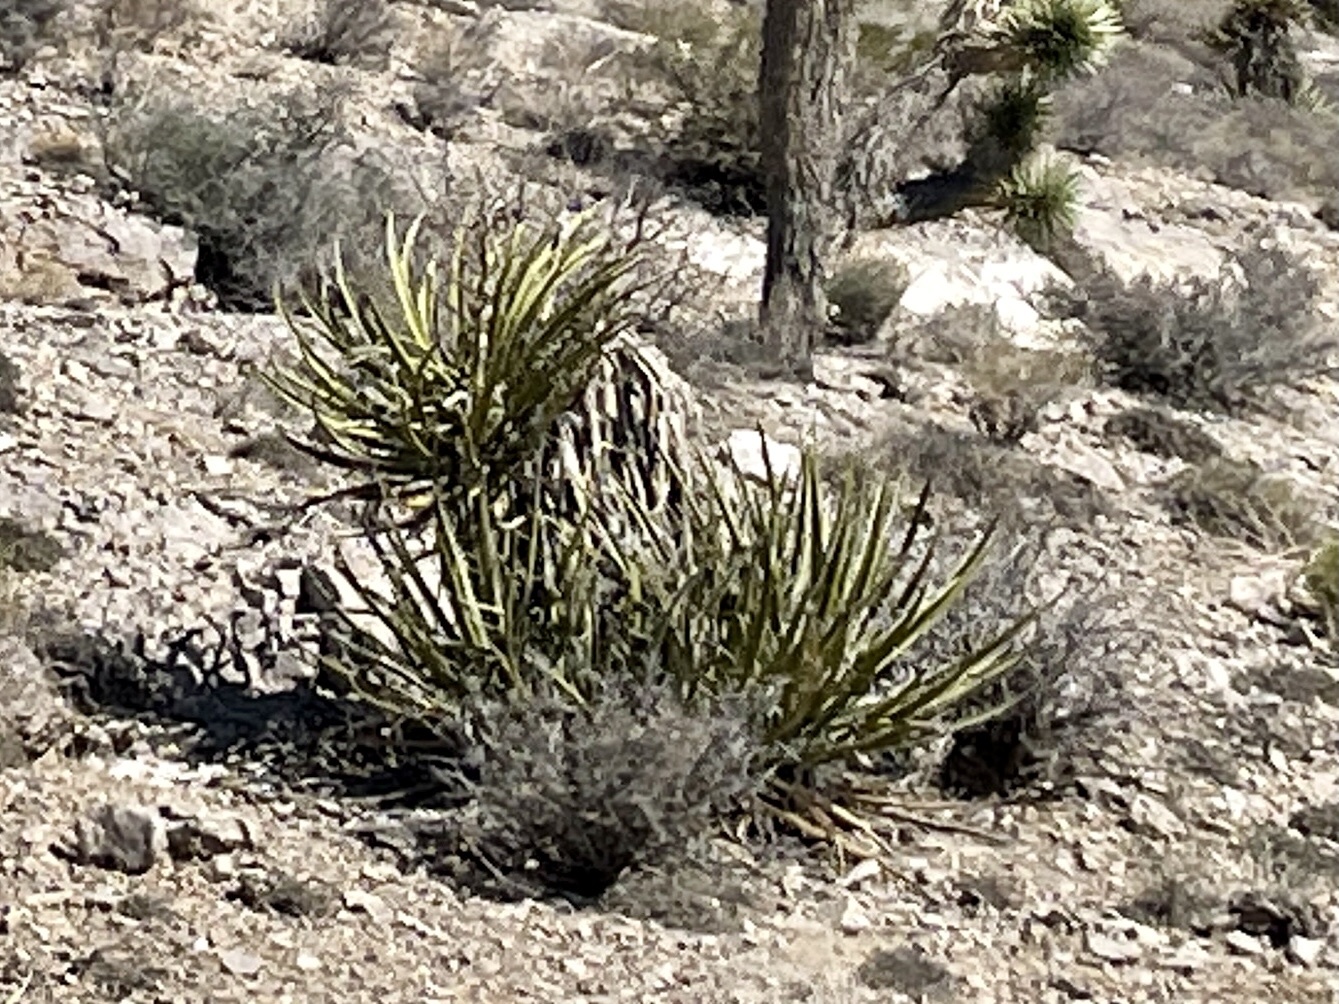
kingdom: Plantae
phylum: Tracheophyta
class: Liliopsida
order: Asparagales
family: Asparagaceae
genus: Yucca
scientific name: Yucca baccata
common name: Banana yucca
